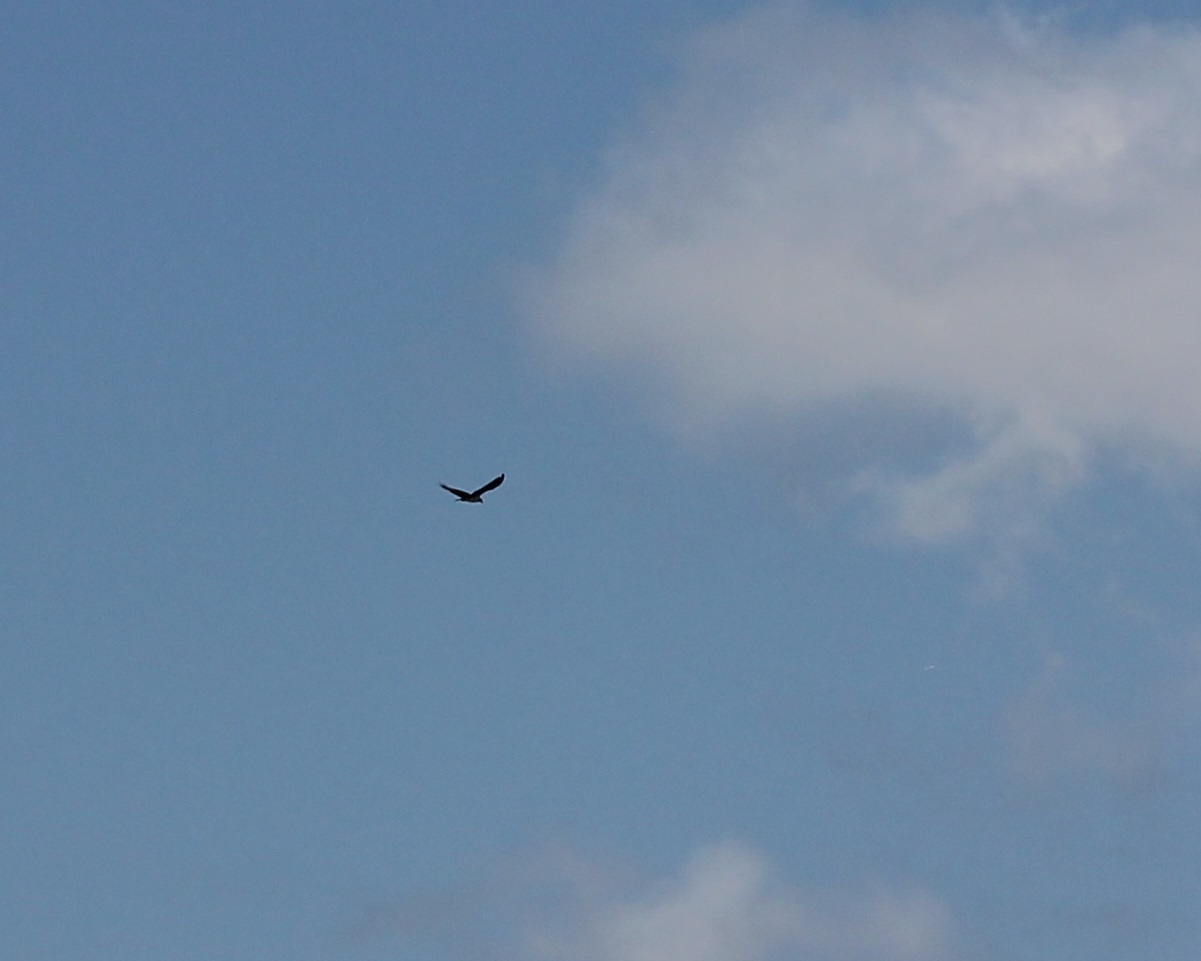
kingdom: Animalia
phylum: Chordata
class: Aves
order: Accipitriformes
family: Pandionidae
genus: Pandion
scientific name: Pandion haliaetus
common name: Osprey
